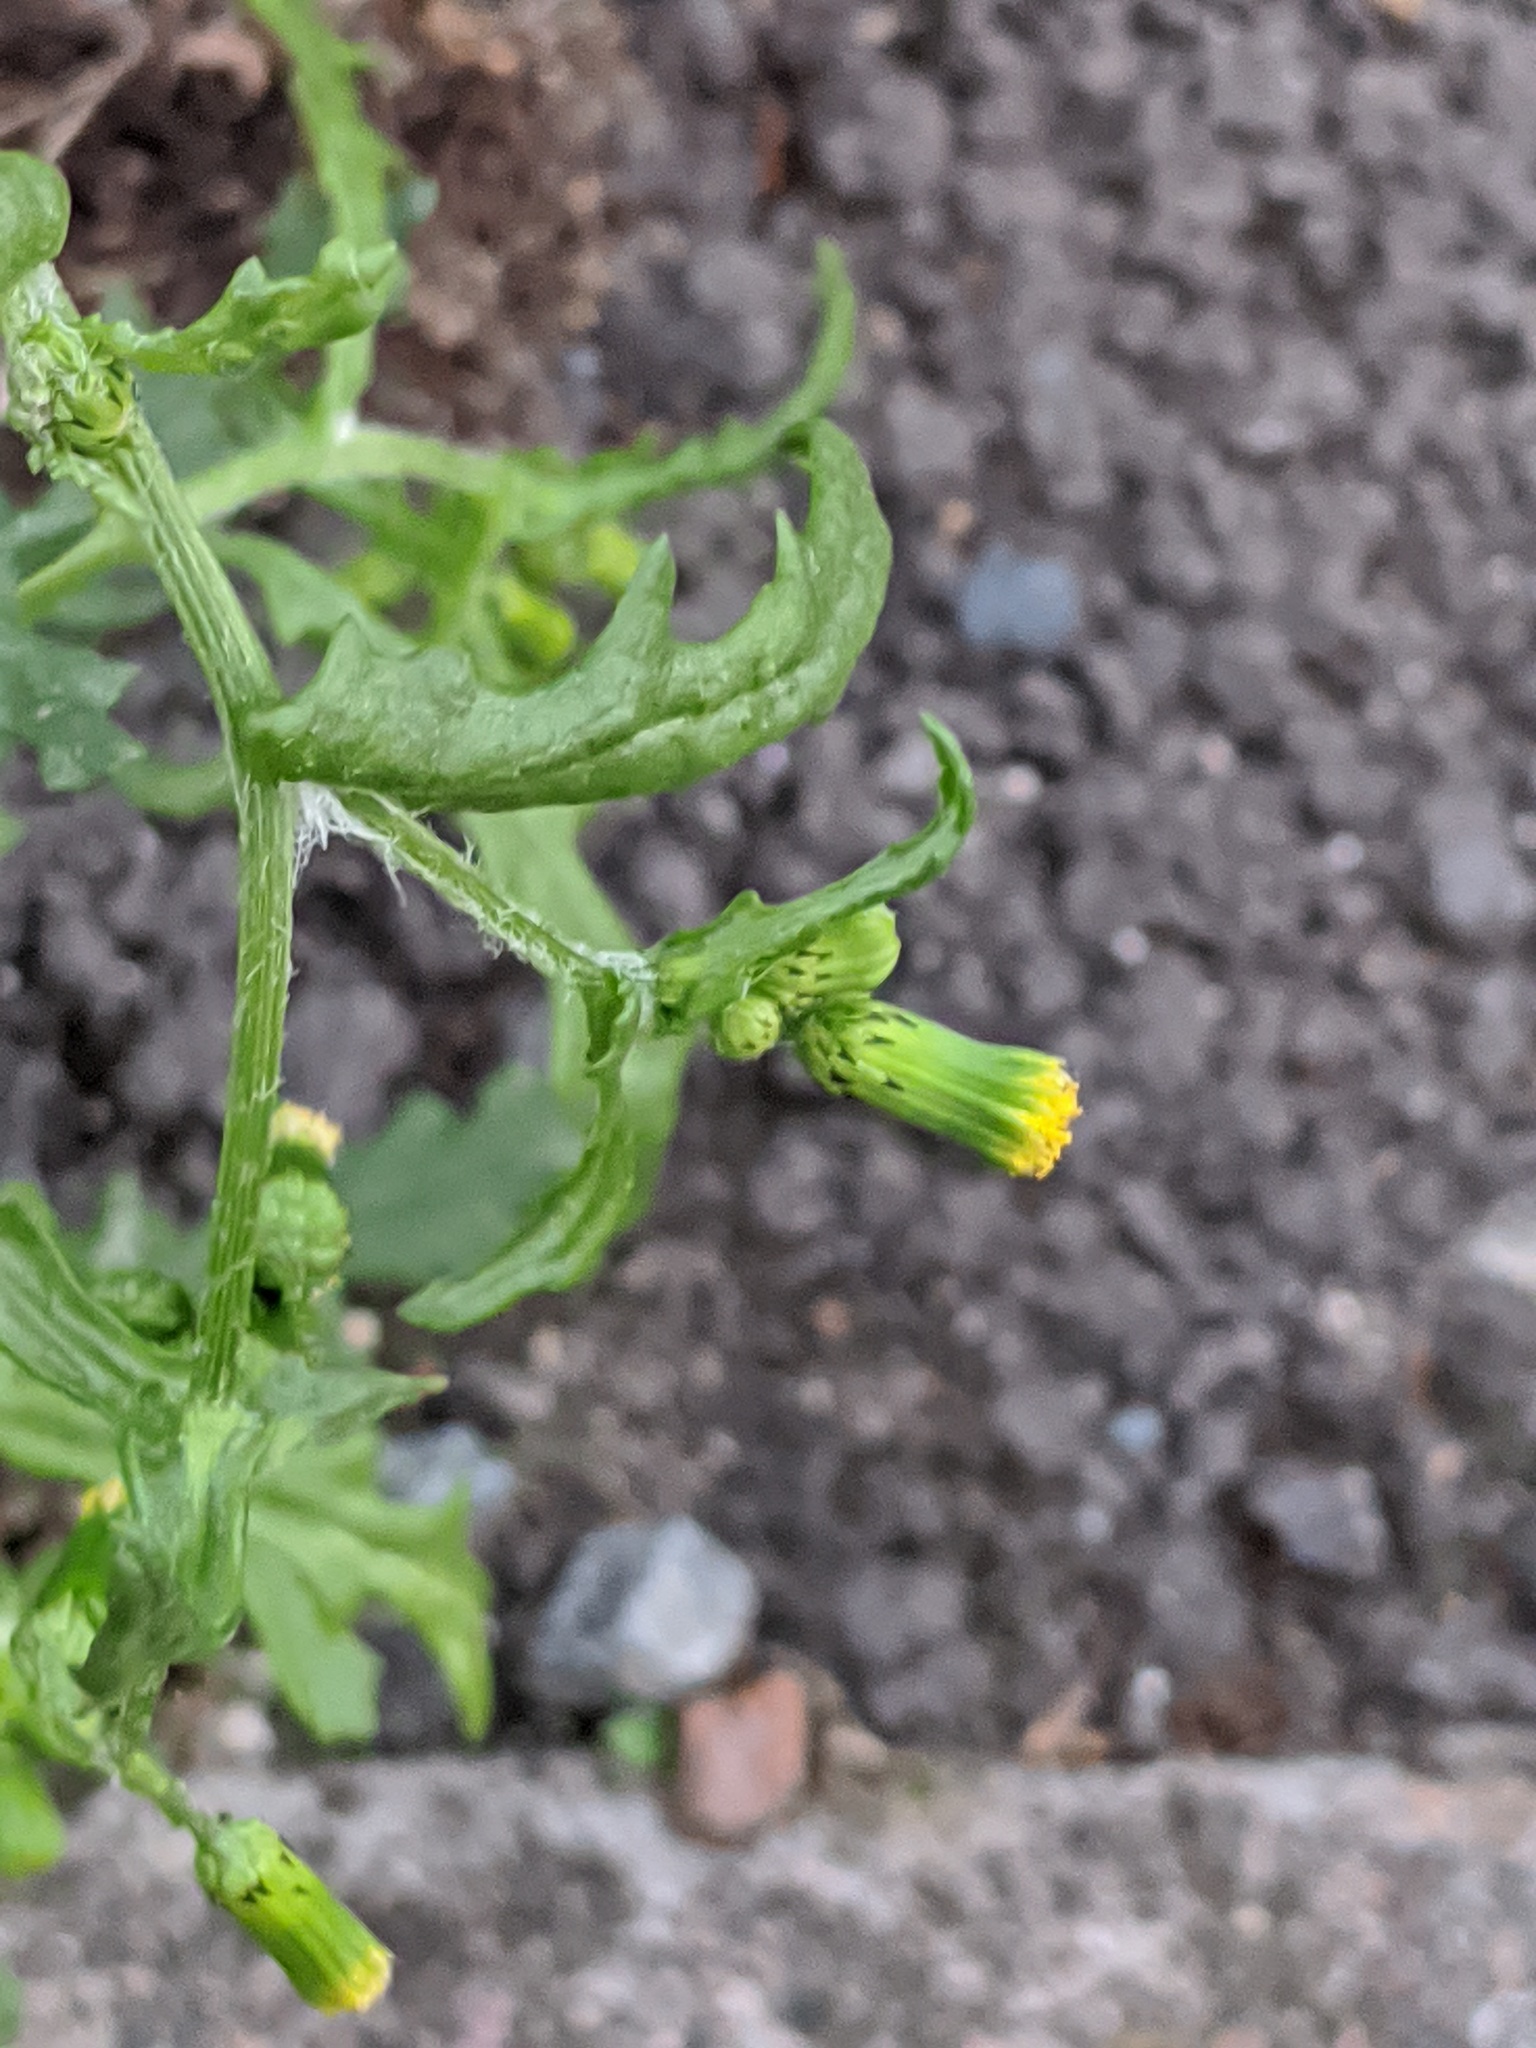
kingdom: Plantae
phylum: Tracheophyta
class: Magnoliopsida
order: Asterales
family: Asteraceae
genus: Senecio
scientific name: Senecio vulgaris
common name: Old-man-in-the-spring
